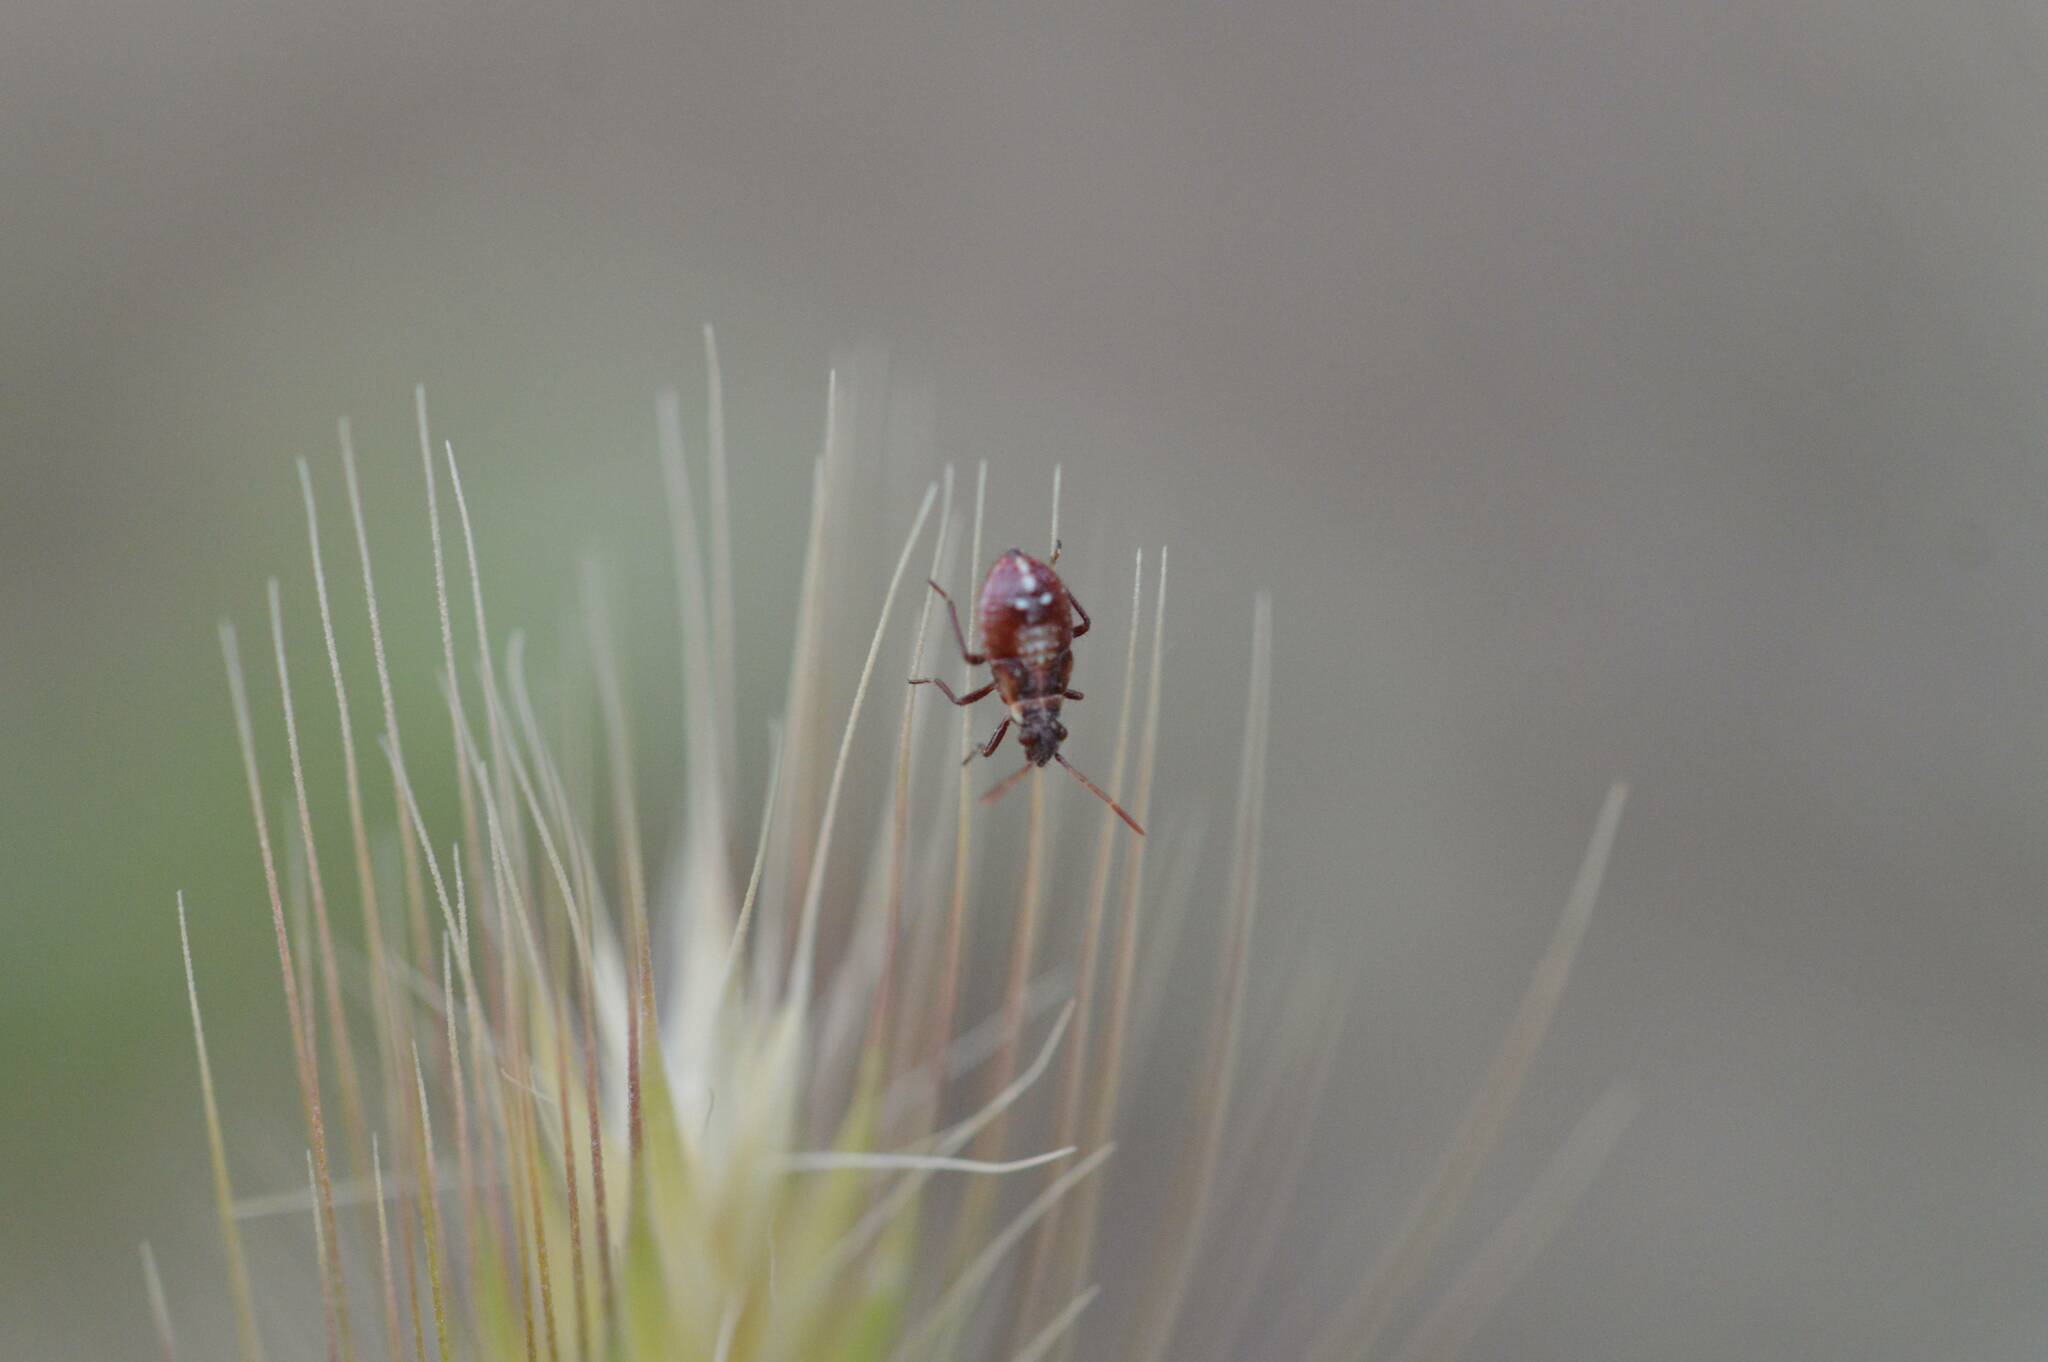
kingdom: Animalia
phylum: Arthropoda
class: Insecta
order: Hemiptera
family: Rhopalidae
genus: Liorhyssus
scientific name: Liorhyssus hyalinus
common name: Scentless plant bug
